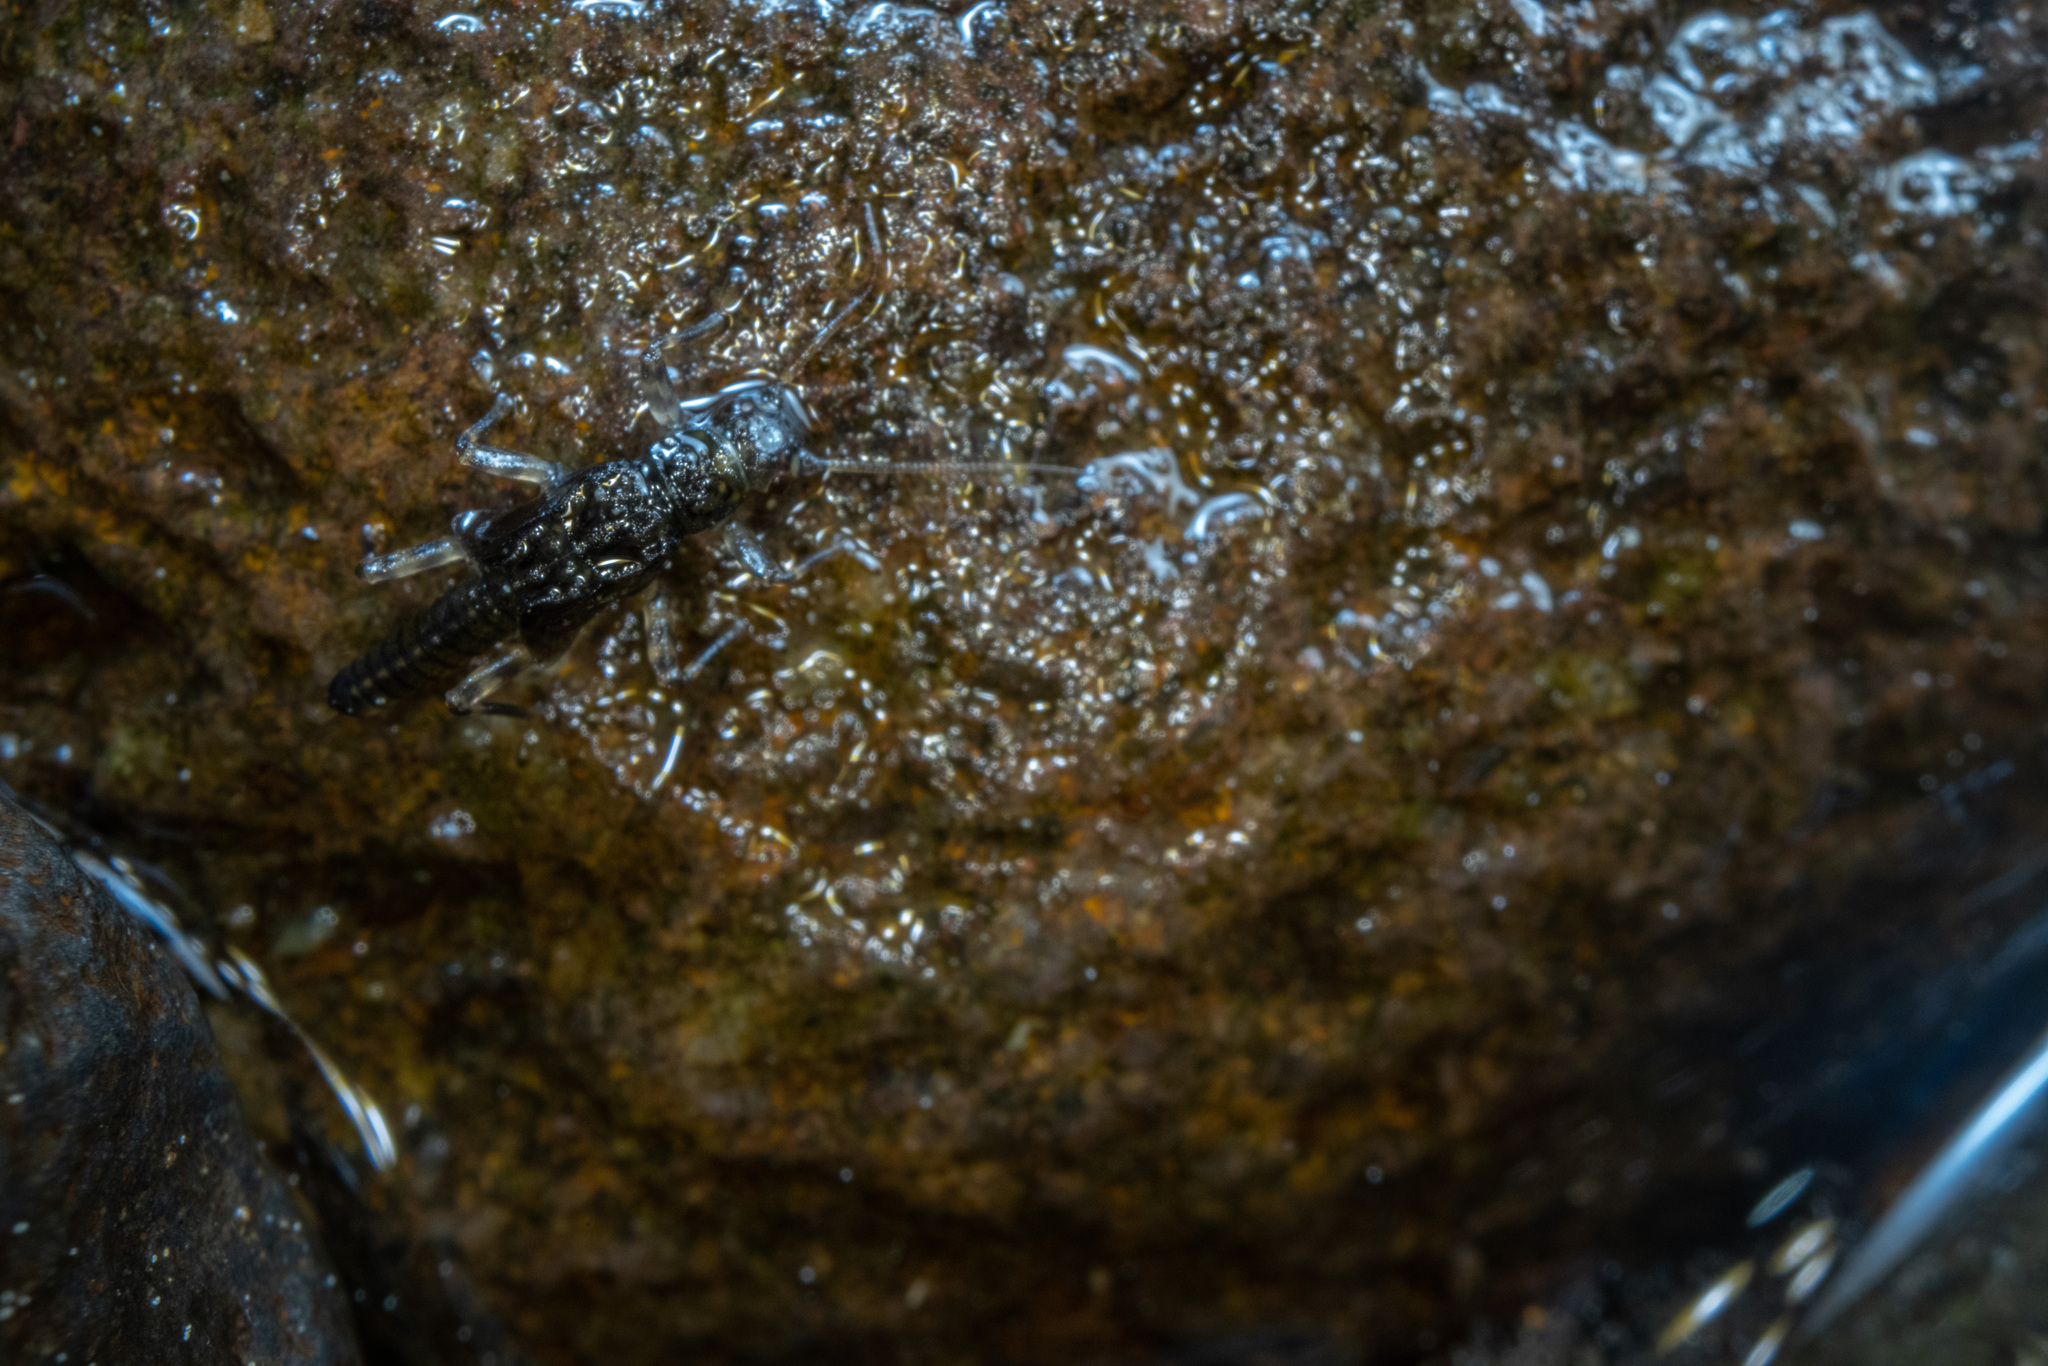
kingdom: Animalia
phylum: Arthropoda
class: Insecta
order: Plecoptera
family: Gripopterygidae
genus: Acroperla
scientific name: Acroperla trivacuata
